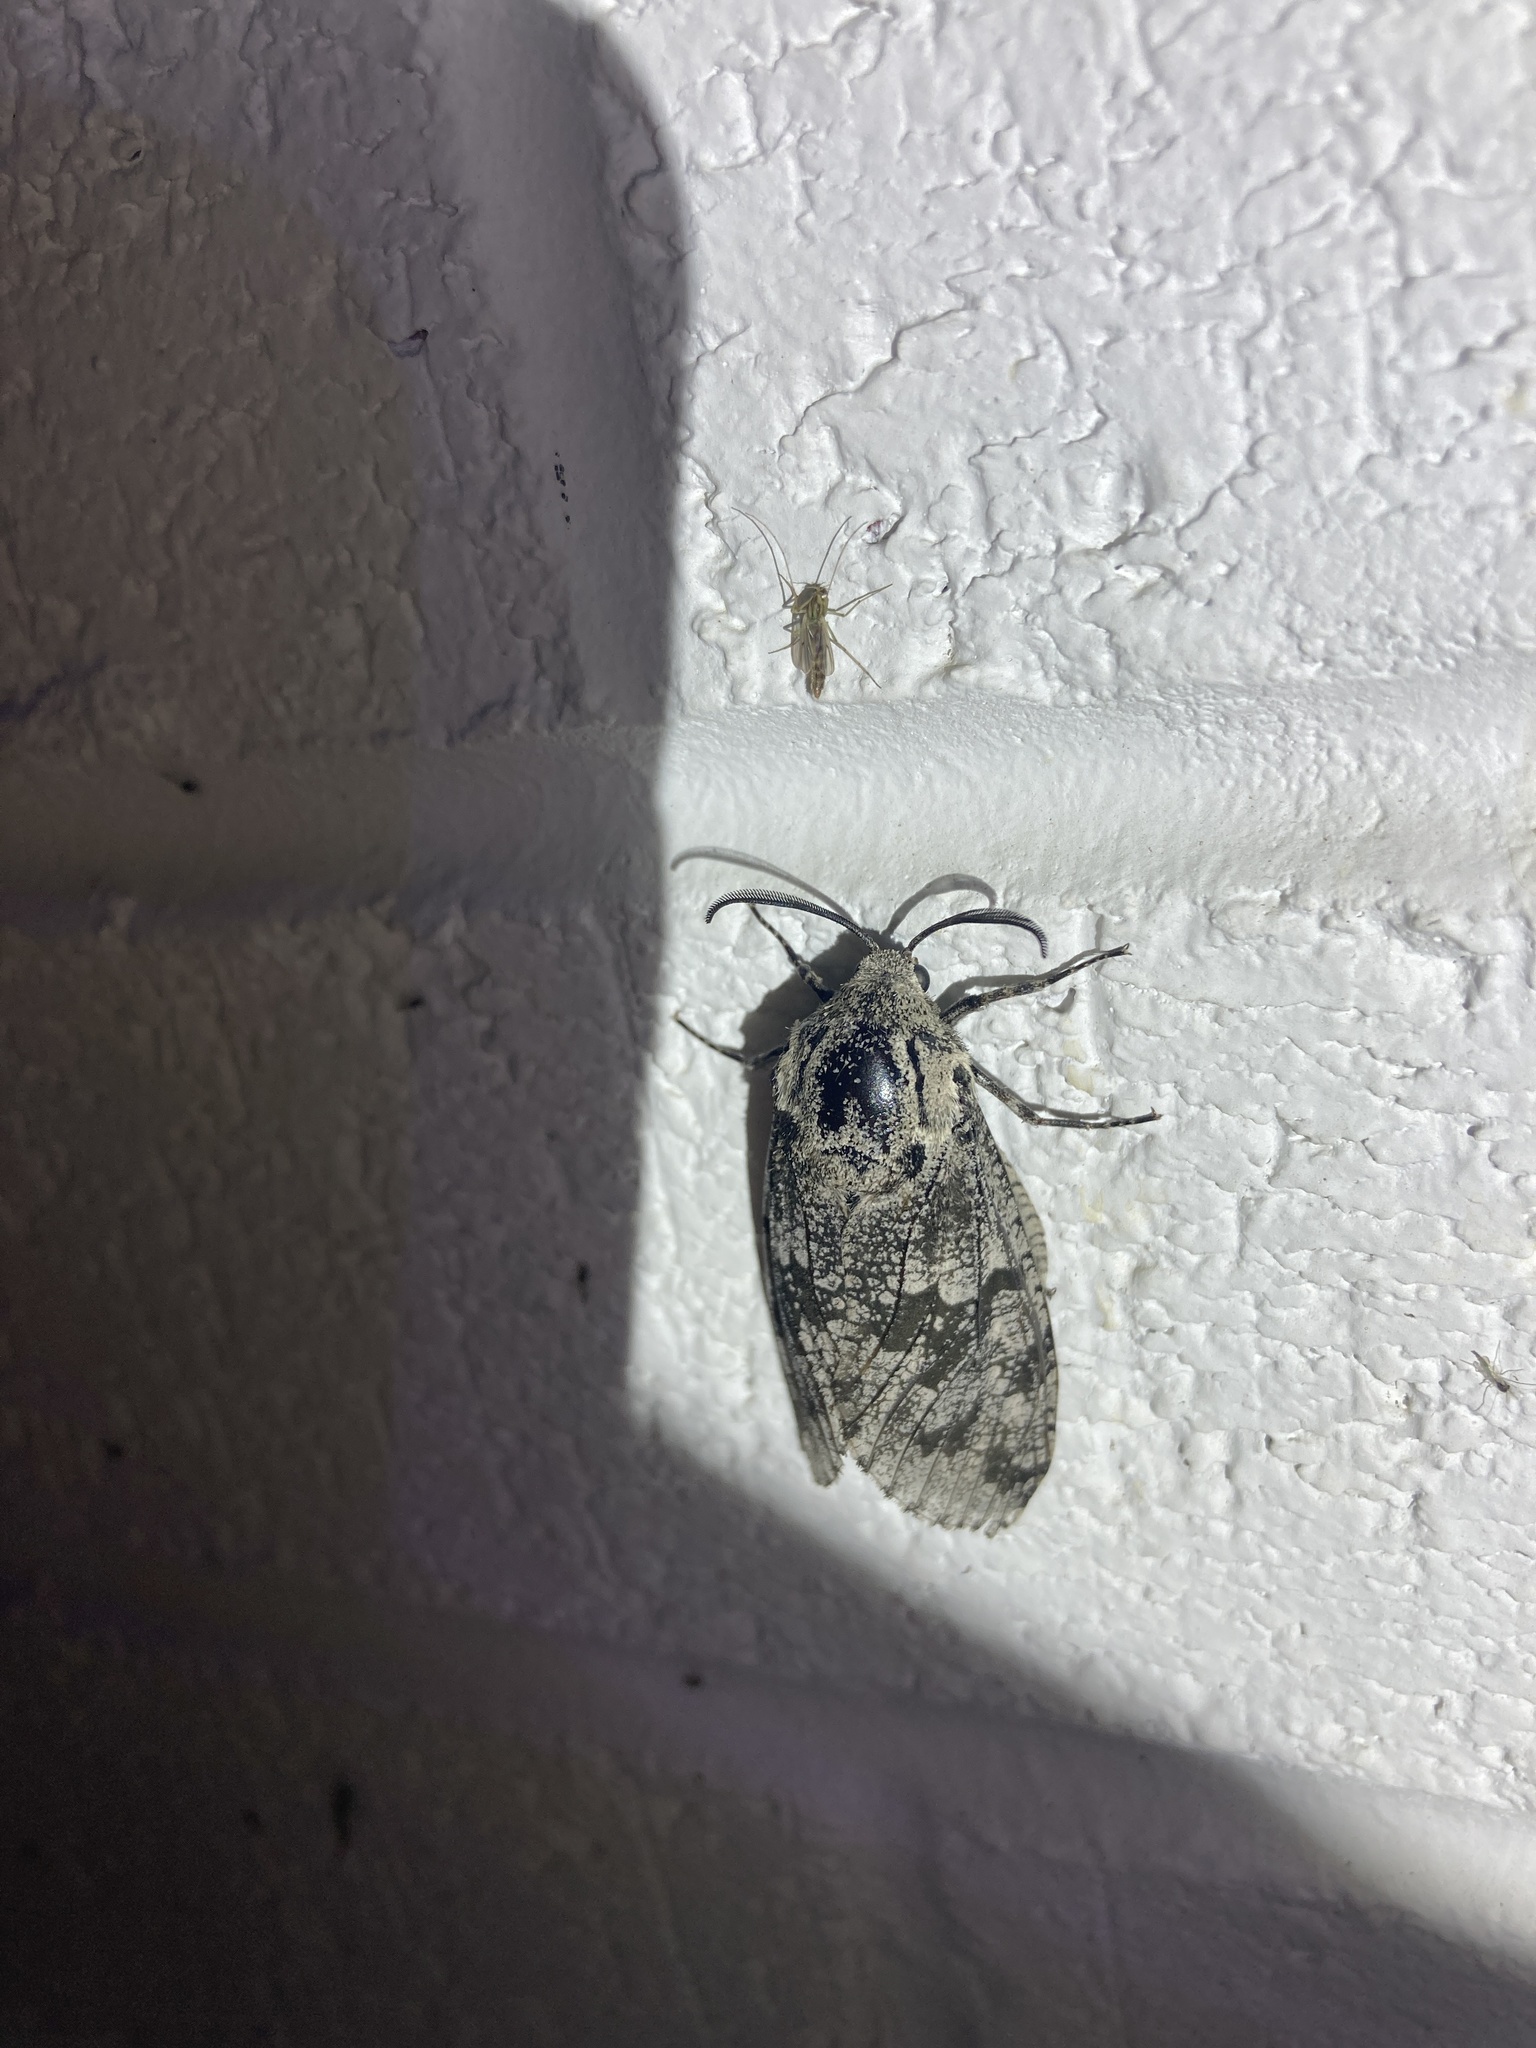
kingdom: Animalia
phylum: Arthropoda
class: Insecta
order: Lepidoptera
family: Cossidae
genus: Prionoxystus
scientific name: Prionoxystus robiniae
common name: Carpenterworm
